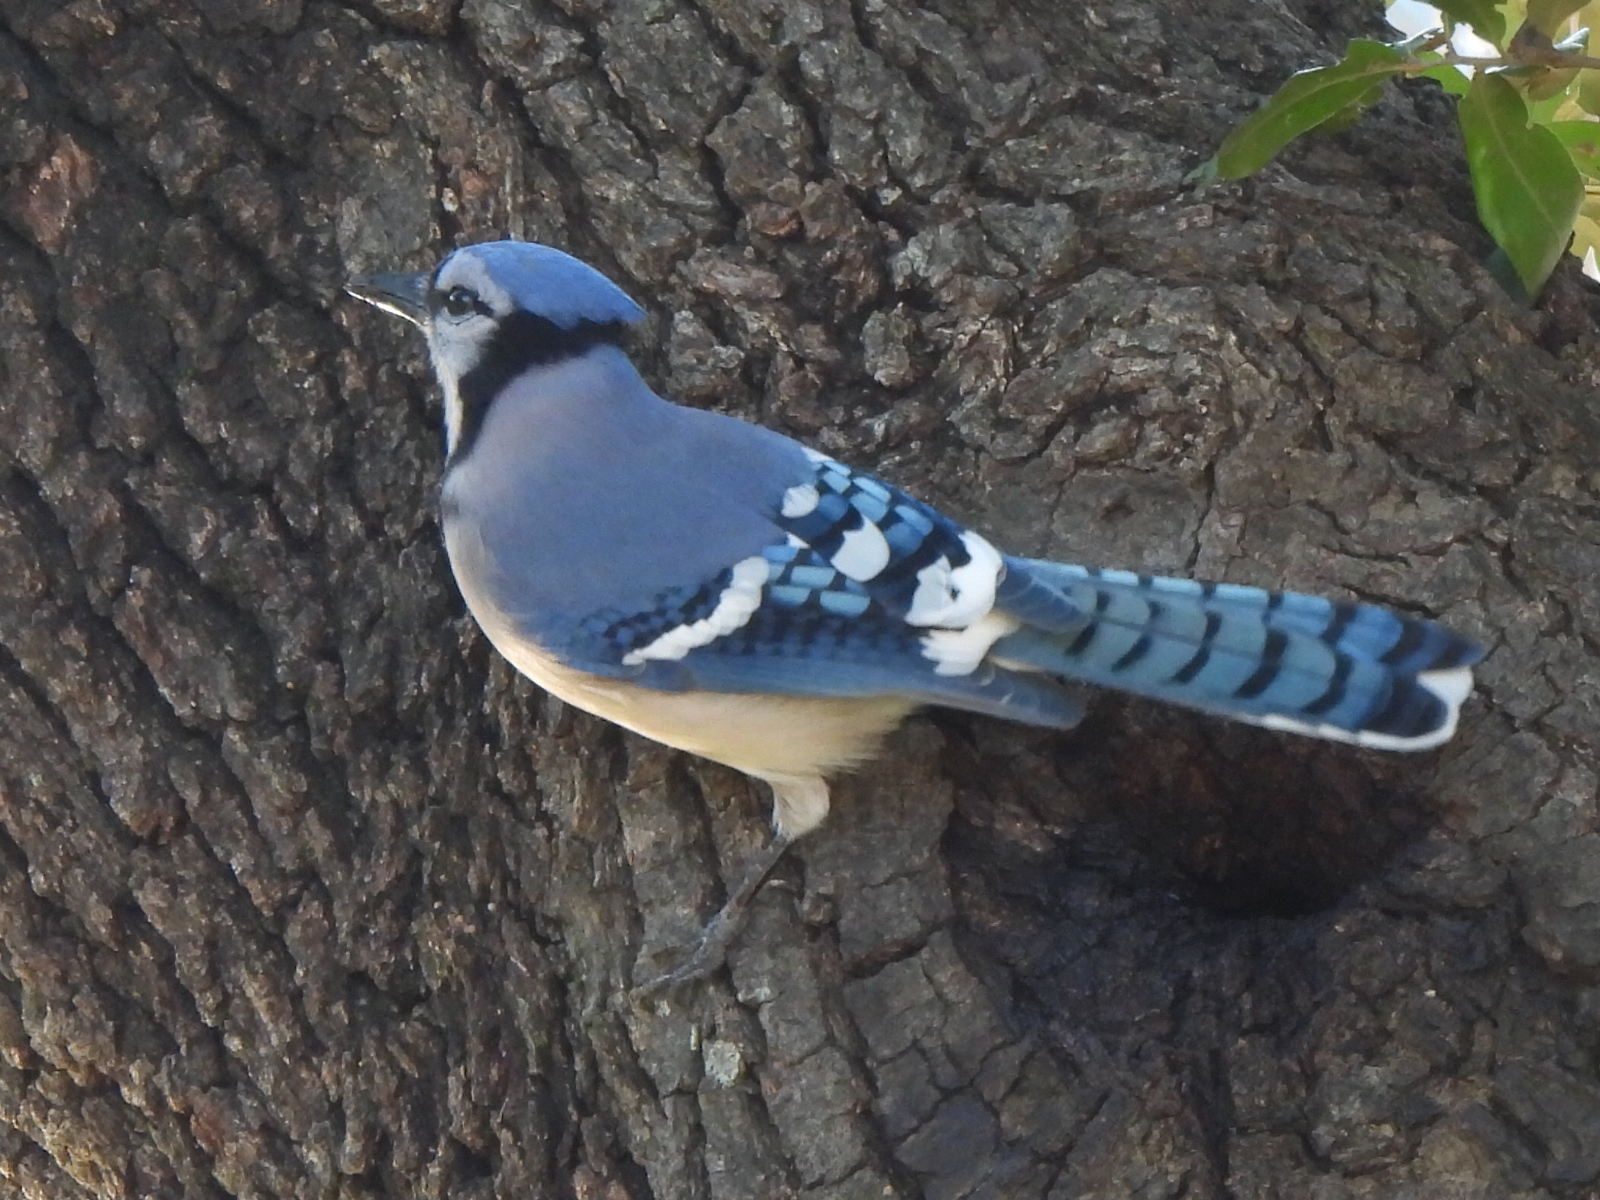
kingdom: Animalia
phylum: Chordata
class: Aves
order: Passeriformes
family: Corvidae
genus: Cyanocitta
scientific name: Cyanocitta cristata
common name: Blue jay
